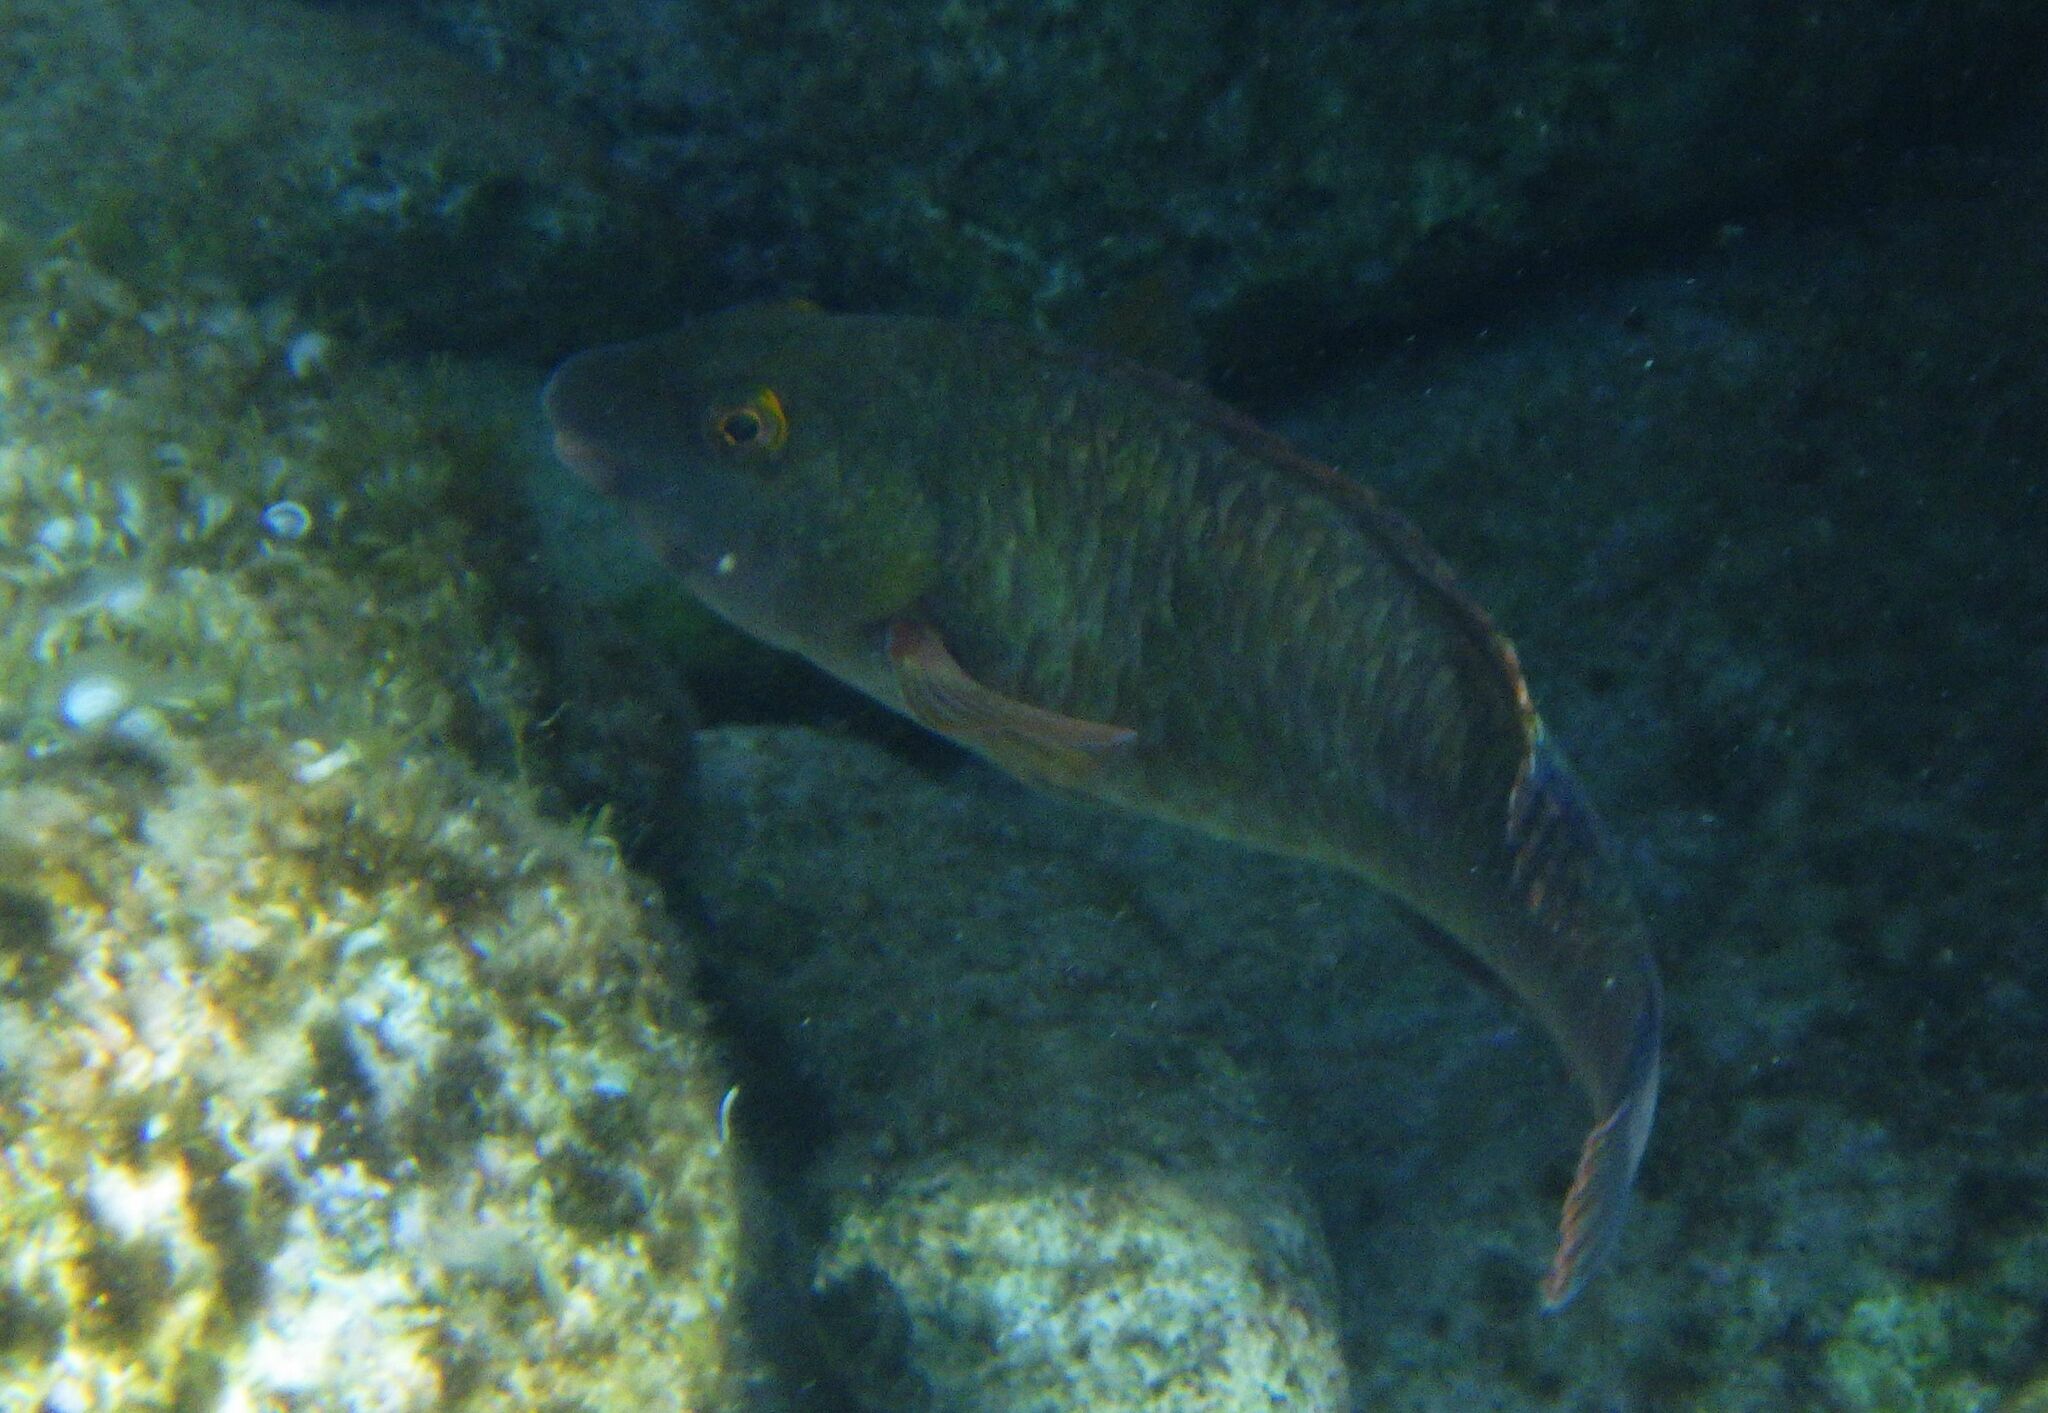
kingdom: Animalia
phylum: Chordata
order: Perciformes
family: Scaridae
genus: Sparisoma
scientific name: Sparisoma cretense
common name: Parrotfish
